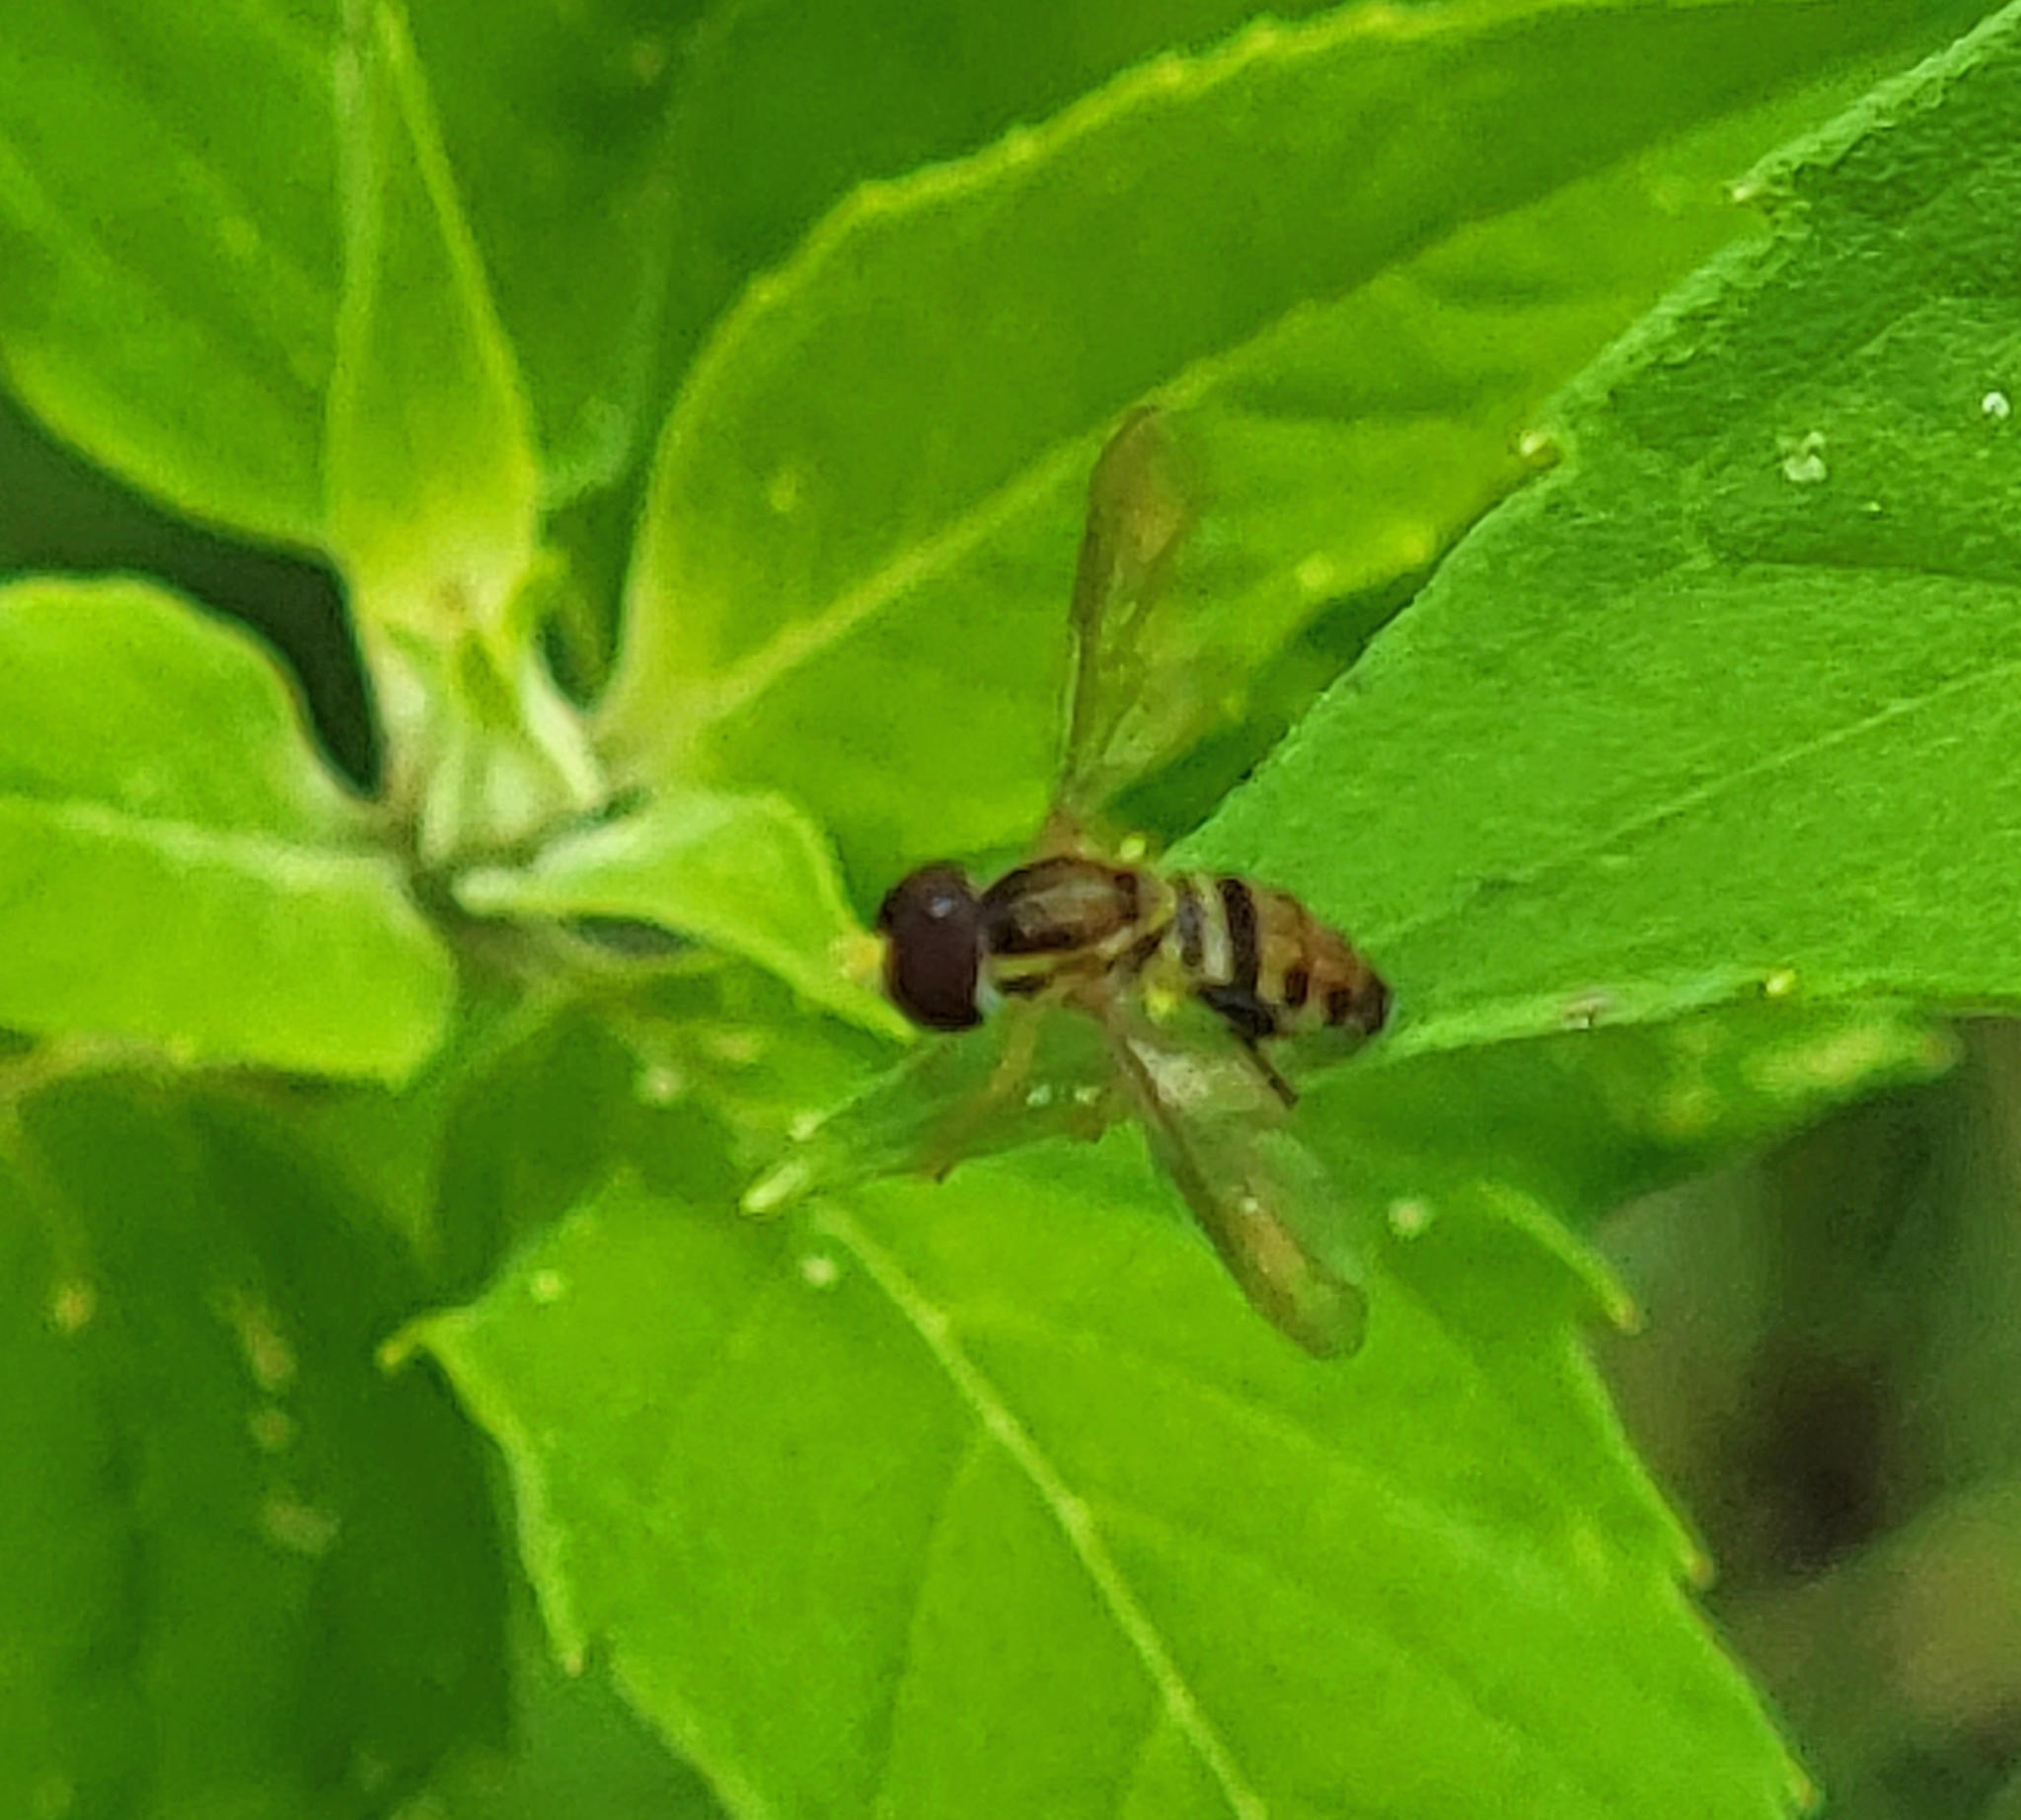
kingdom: Animalia
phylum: Arthropoda
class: Insecta
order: Diptera
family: Syrphidae
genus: Toxomerus
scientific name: Toxomerus geminatus
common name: Eastern calligrapher
